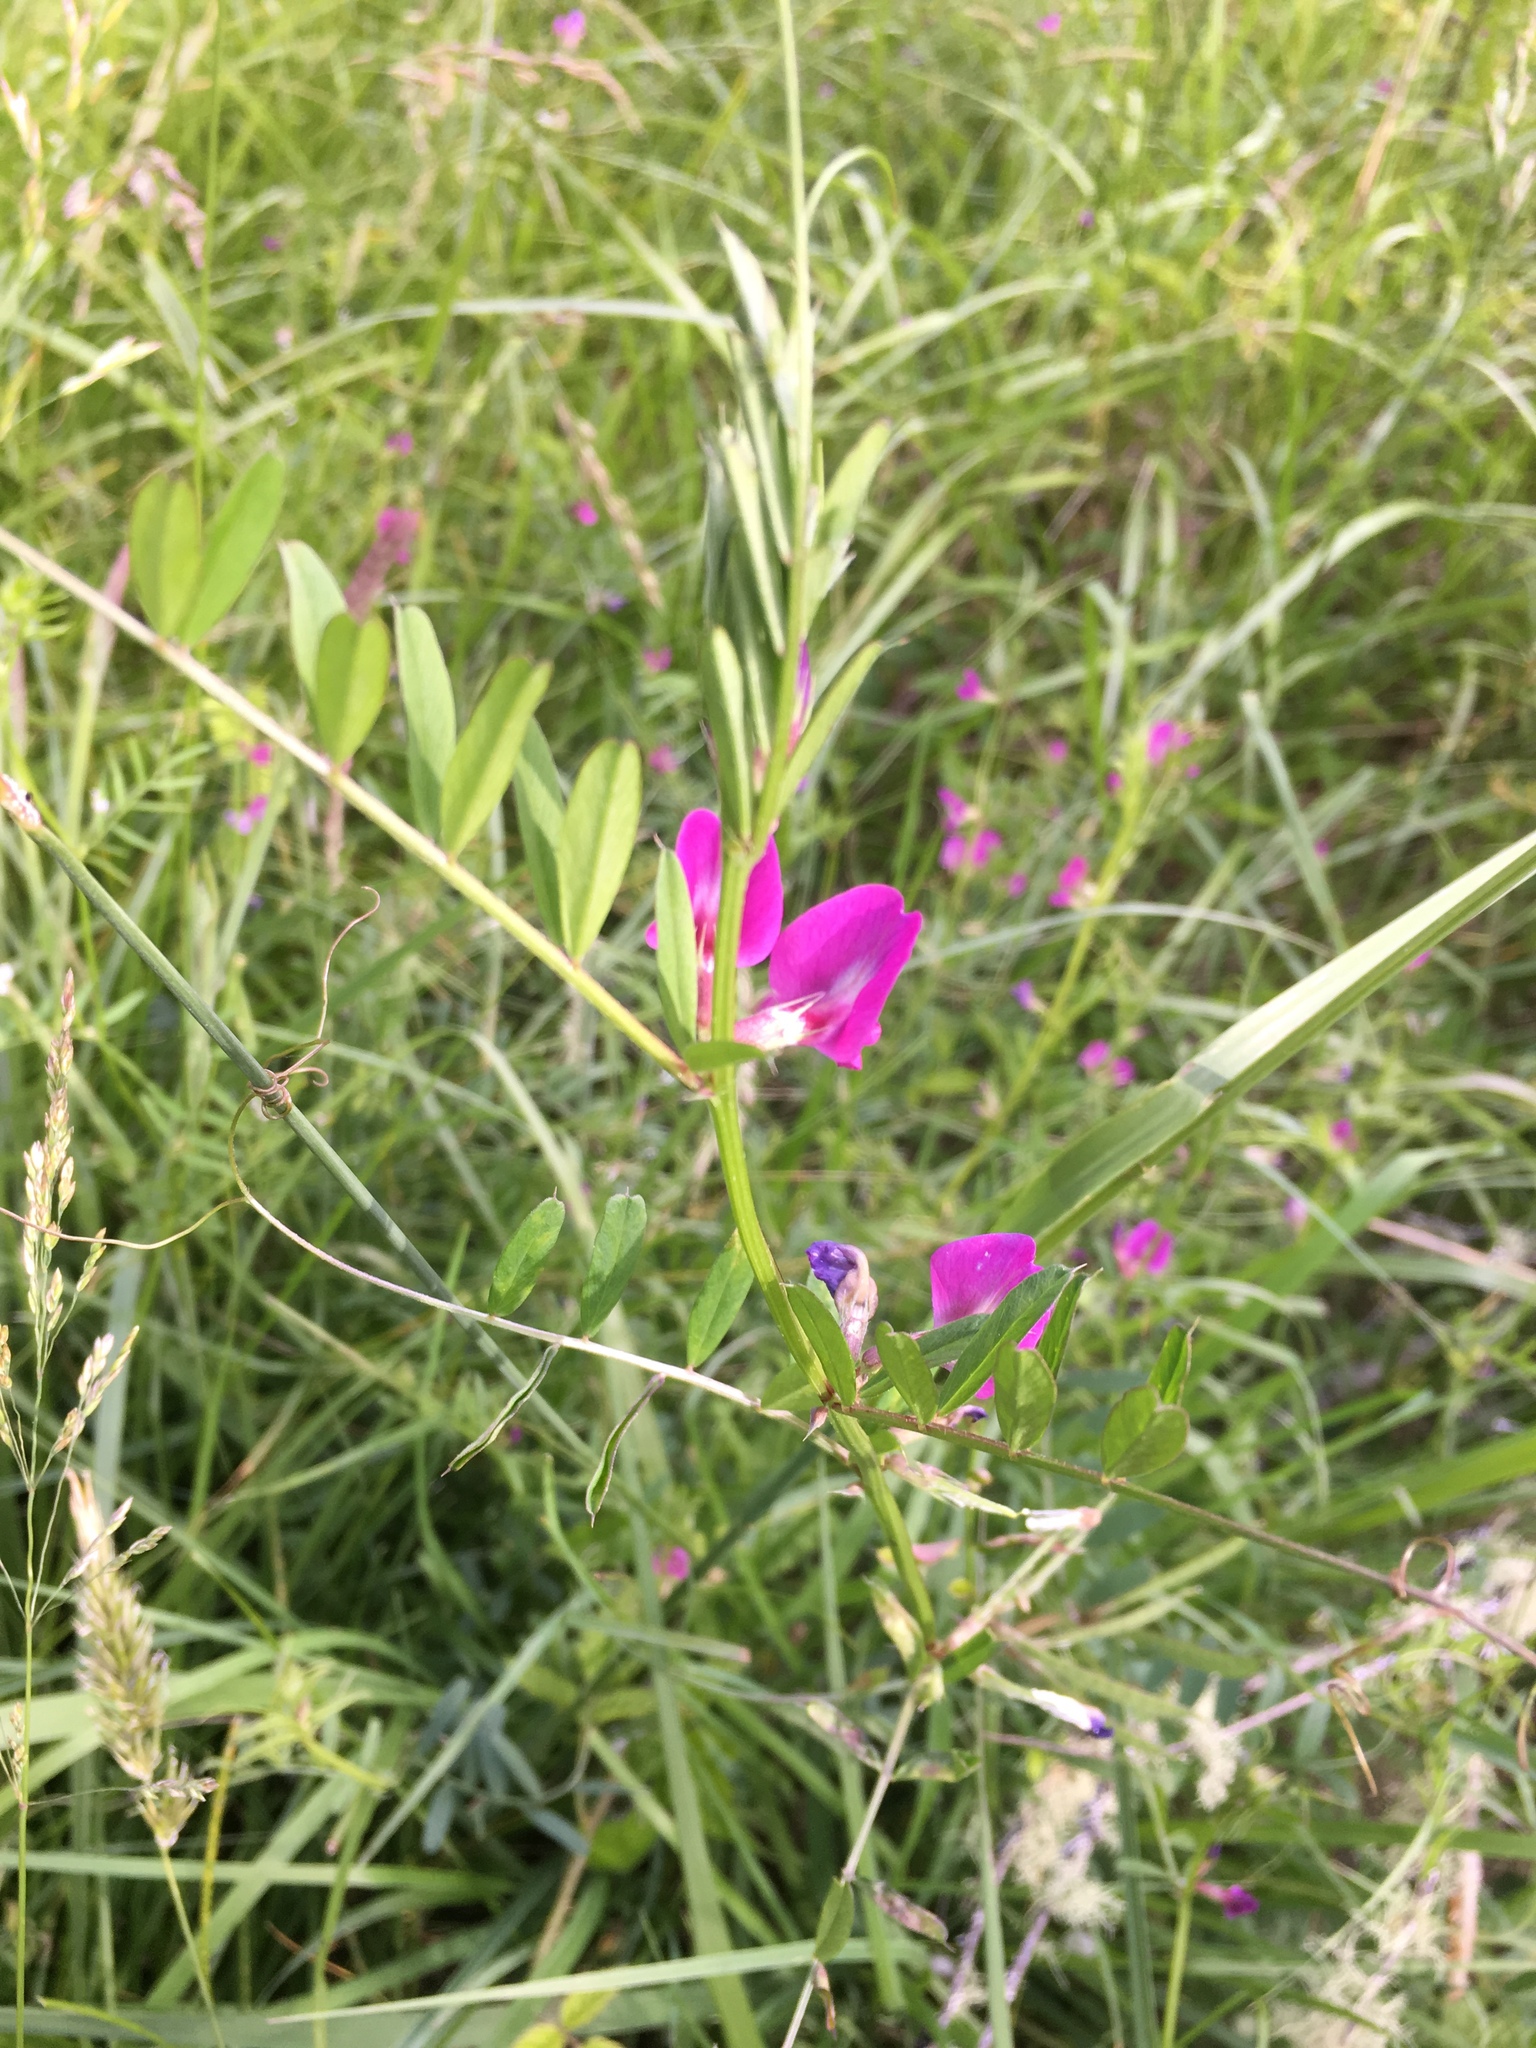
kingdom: Plantae
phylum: Tracheophyta
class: Magnoliopsida
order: Fabales
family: Fabaceae
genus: Vicia
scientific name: Vicia sativa
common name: Garden vetch
